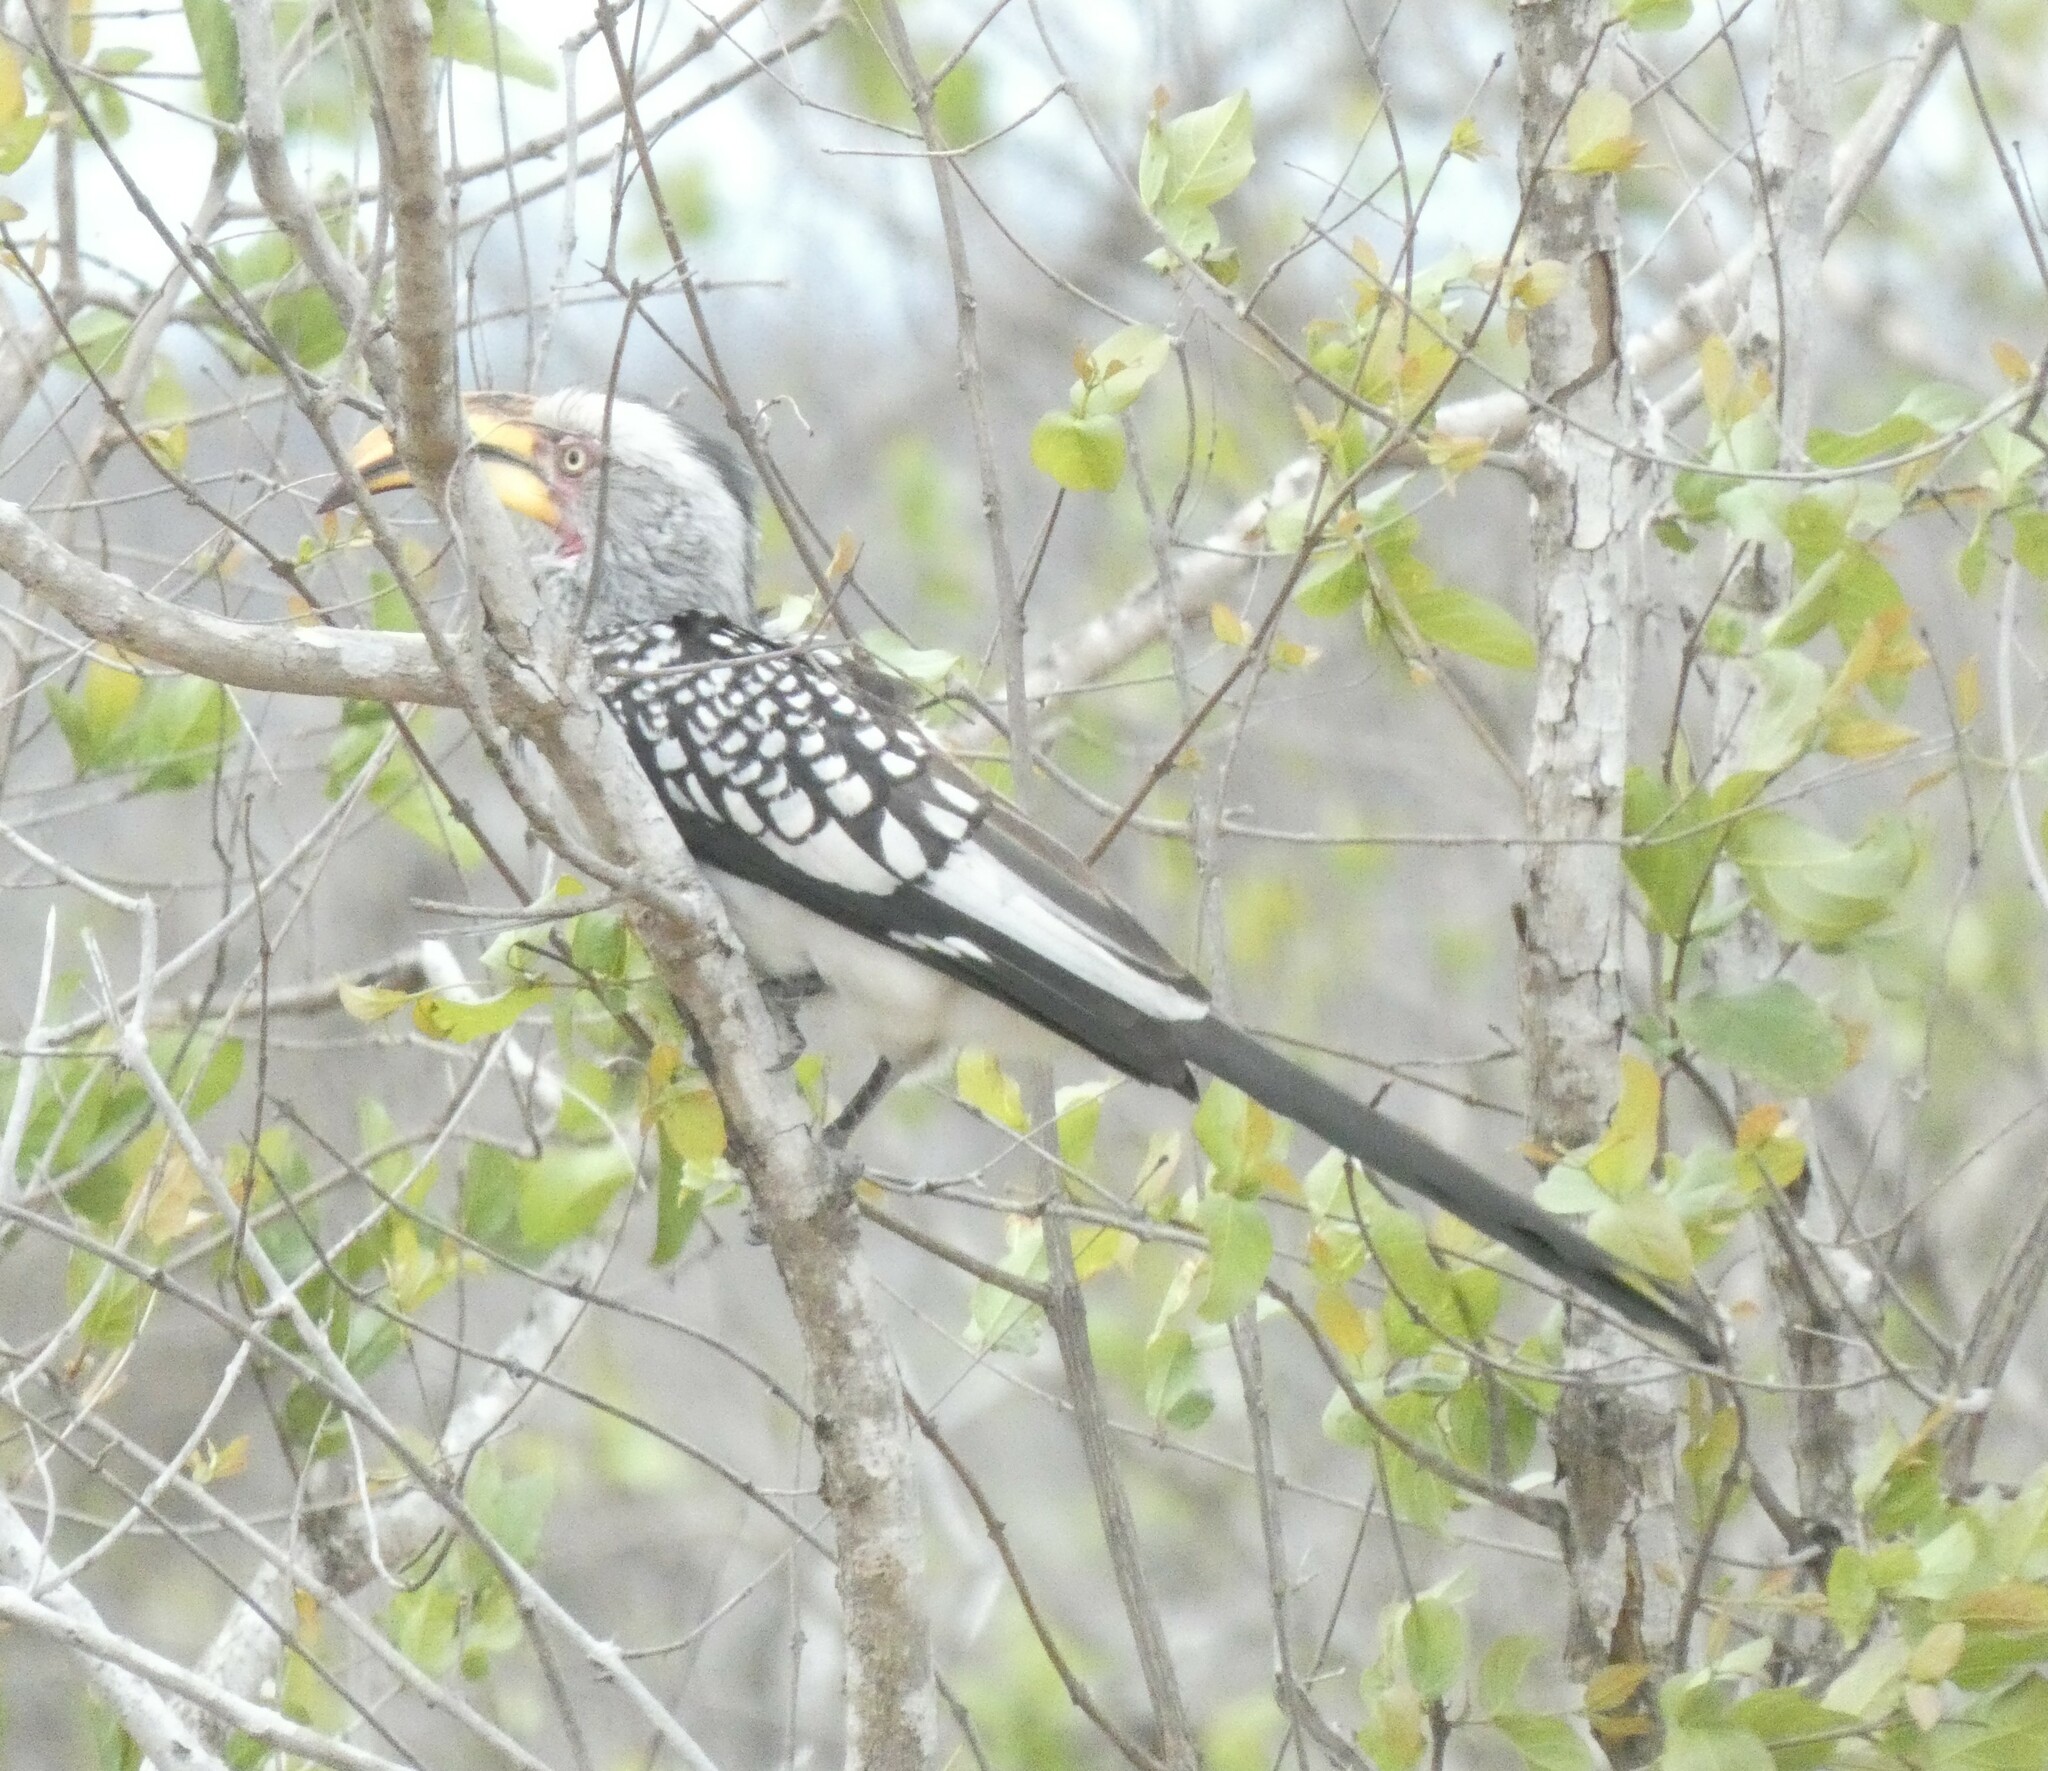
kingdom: Animalia
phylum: Chordata
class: Aves
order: Bucerotiformes
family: Bucerotidae
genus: Tockus
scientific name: Tockus leucomelas
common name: Southern yellow-billed hornbill
